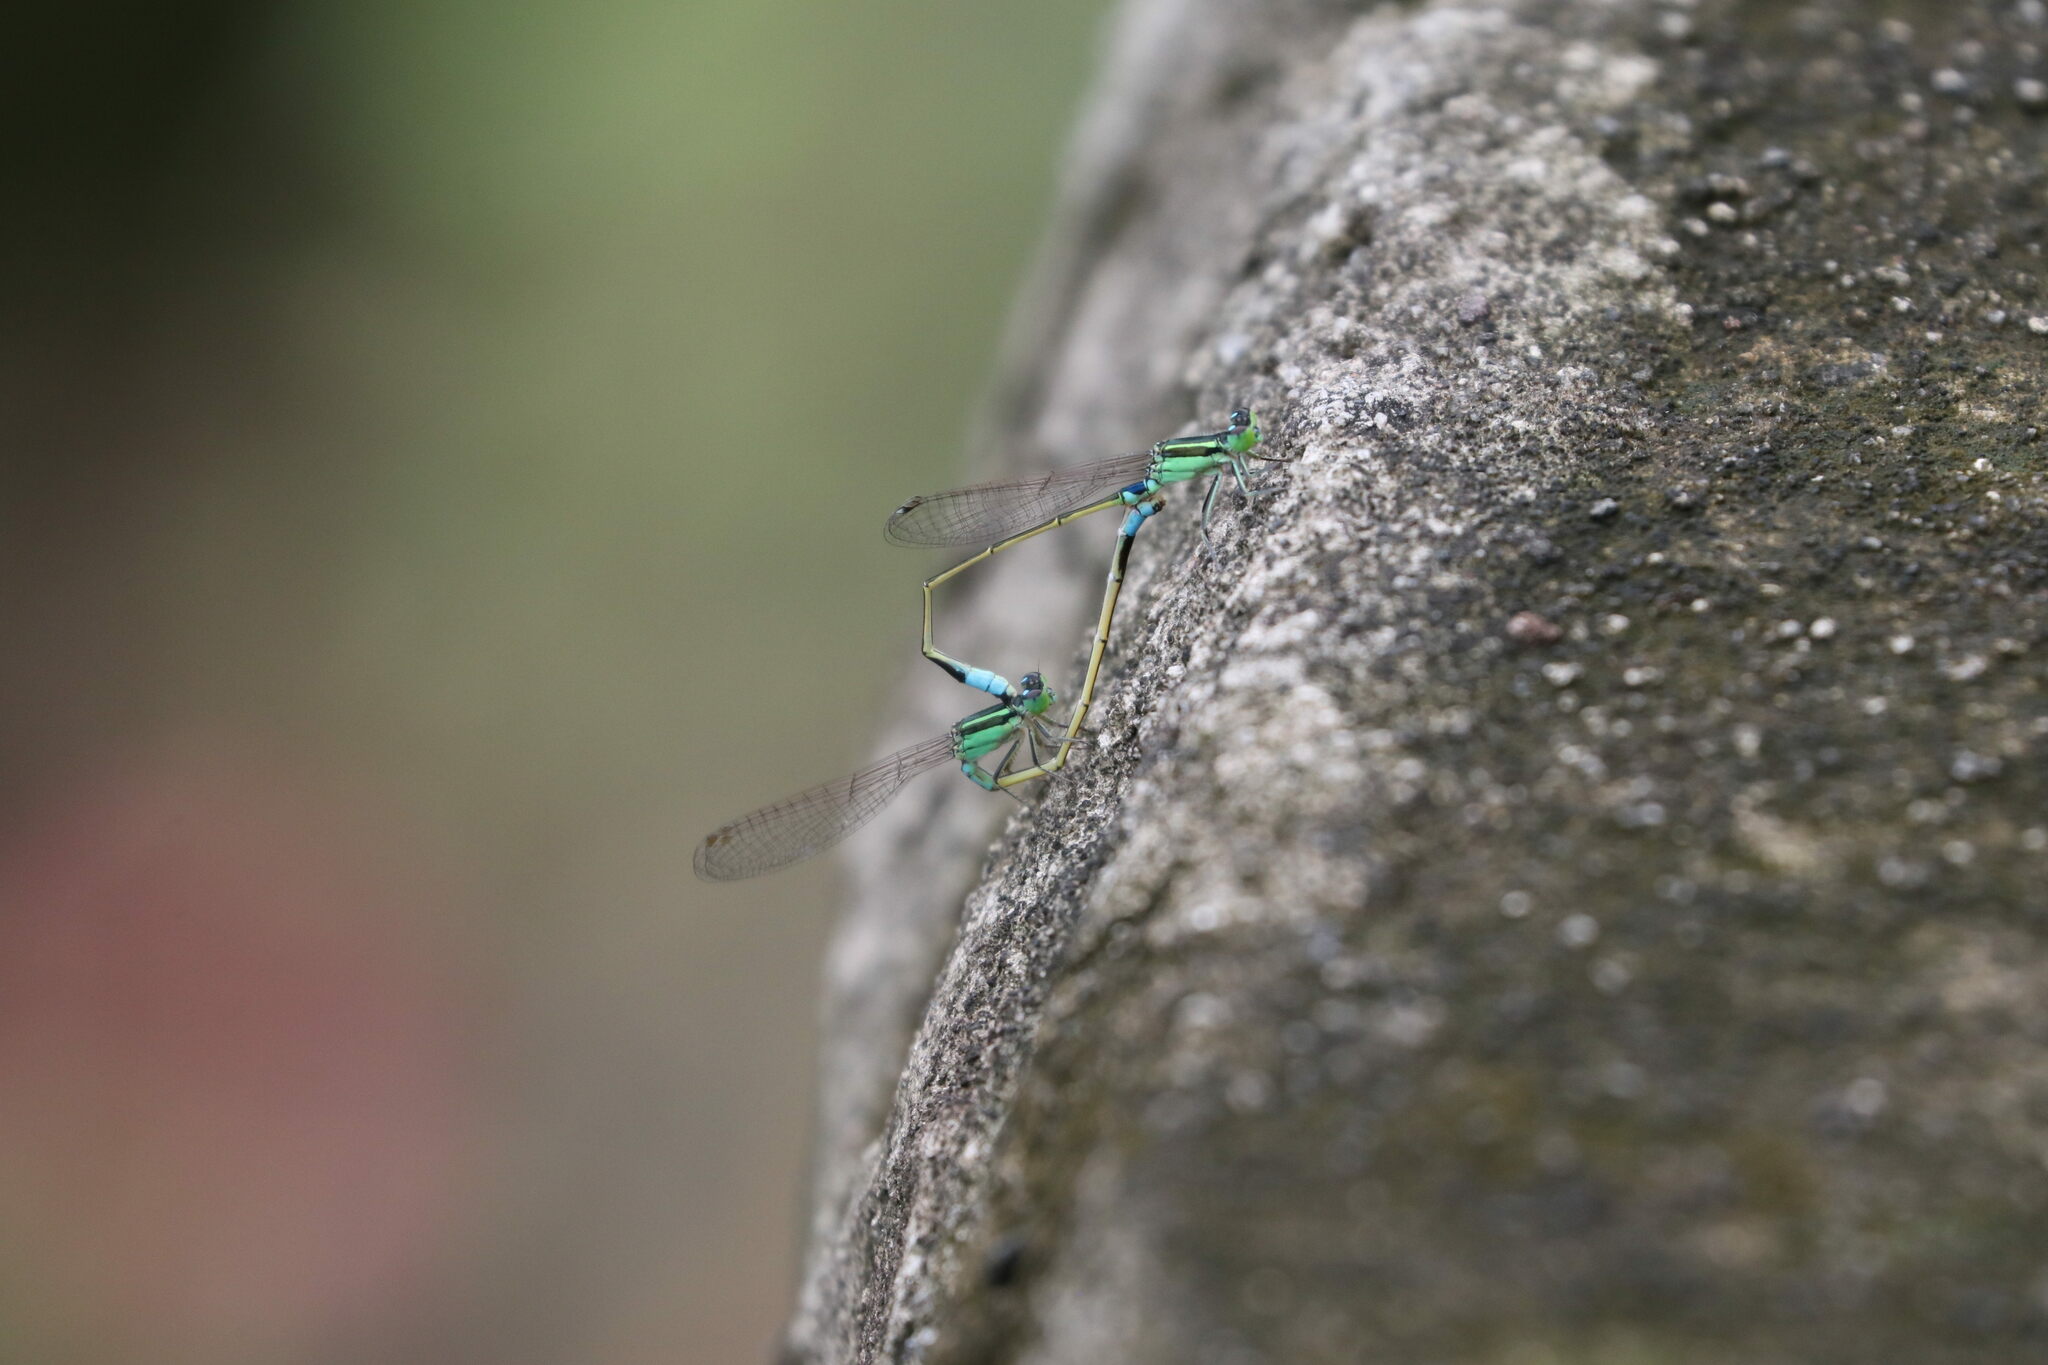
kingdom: Animalia
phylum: Arthropoda
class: Insecta
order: Odonata
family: Coenagrionidae
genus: Ischnura
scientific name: Ischnura senegalensis
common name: Tropical bluetail
